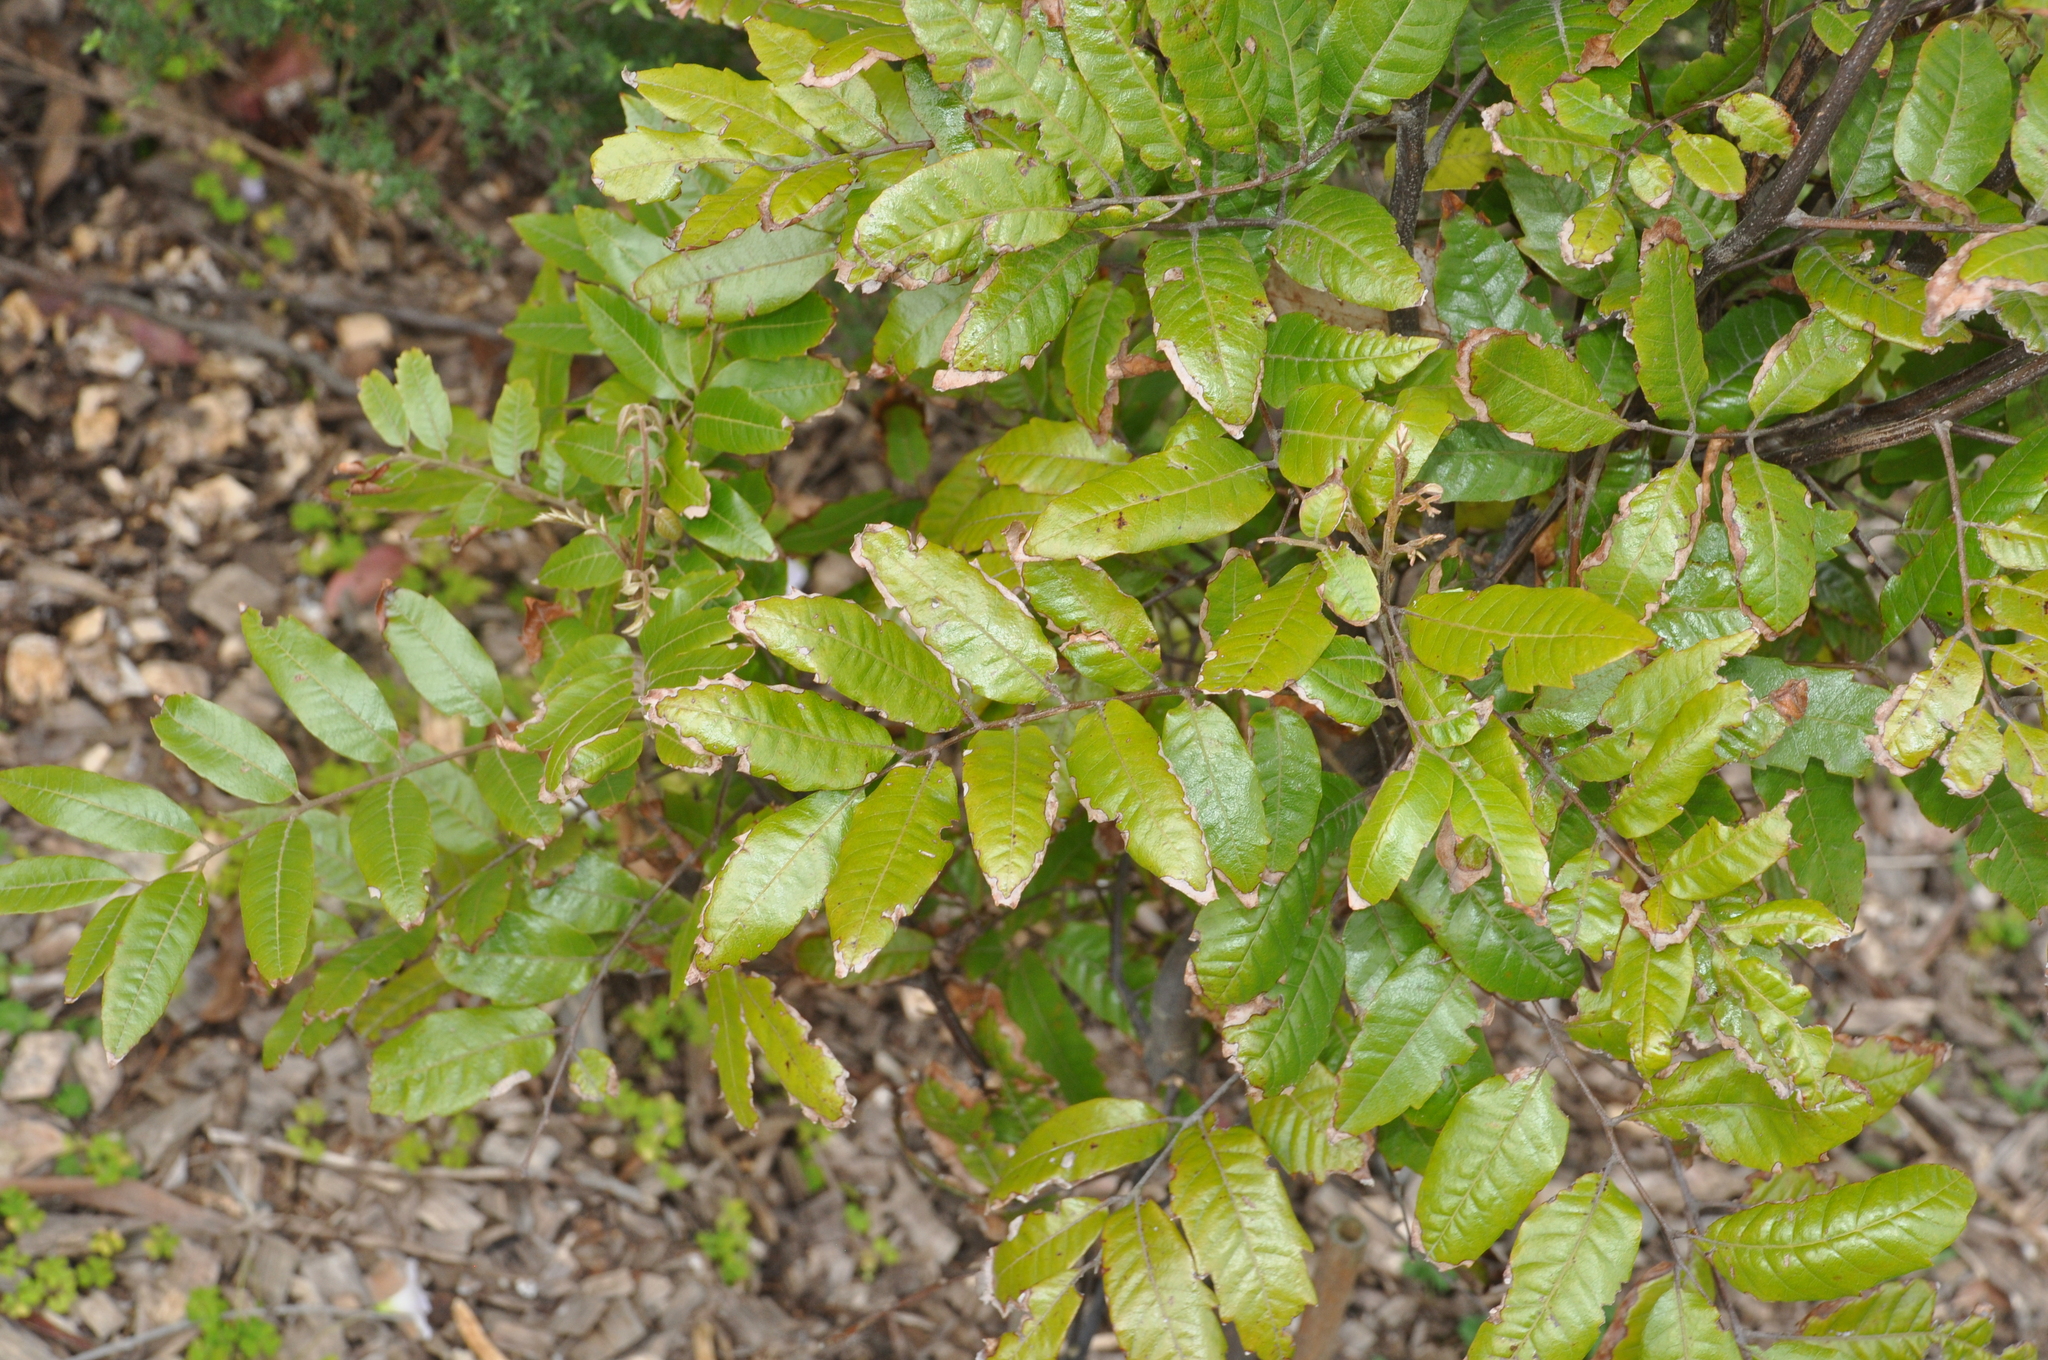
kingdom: Plantae
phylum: Tracheophyta
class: Magnoliopsida
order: Sapindales
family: Sapindaceae
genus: Alectryon
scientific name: Alectryon excelsus
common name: Three kings titoki
